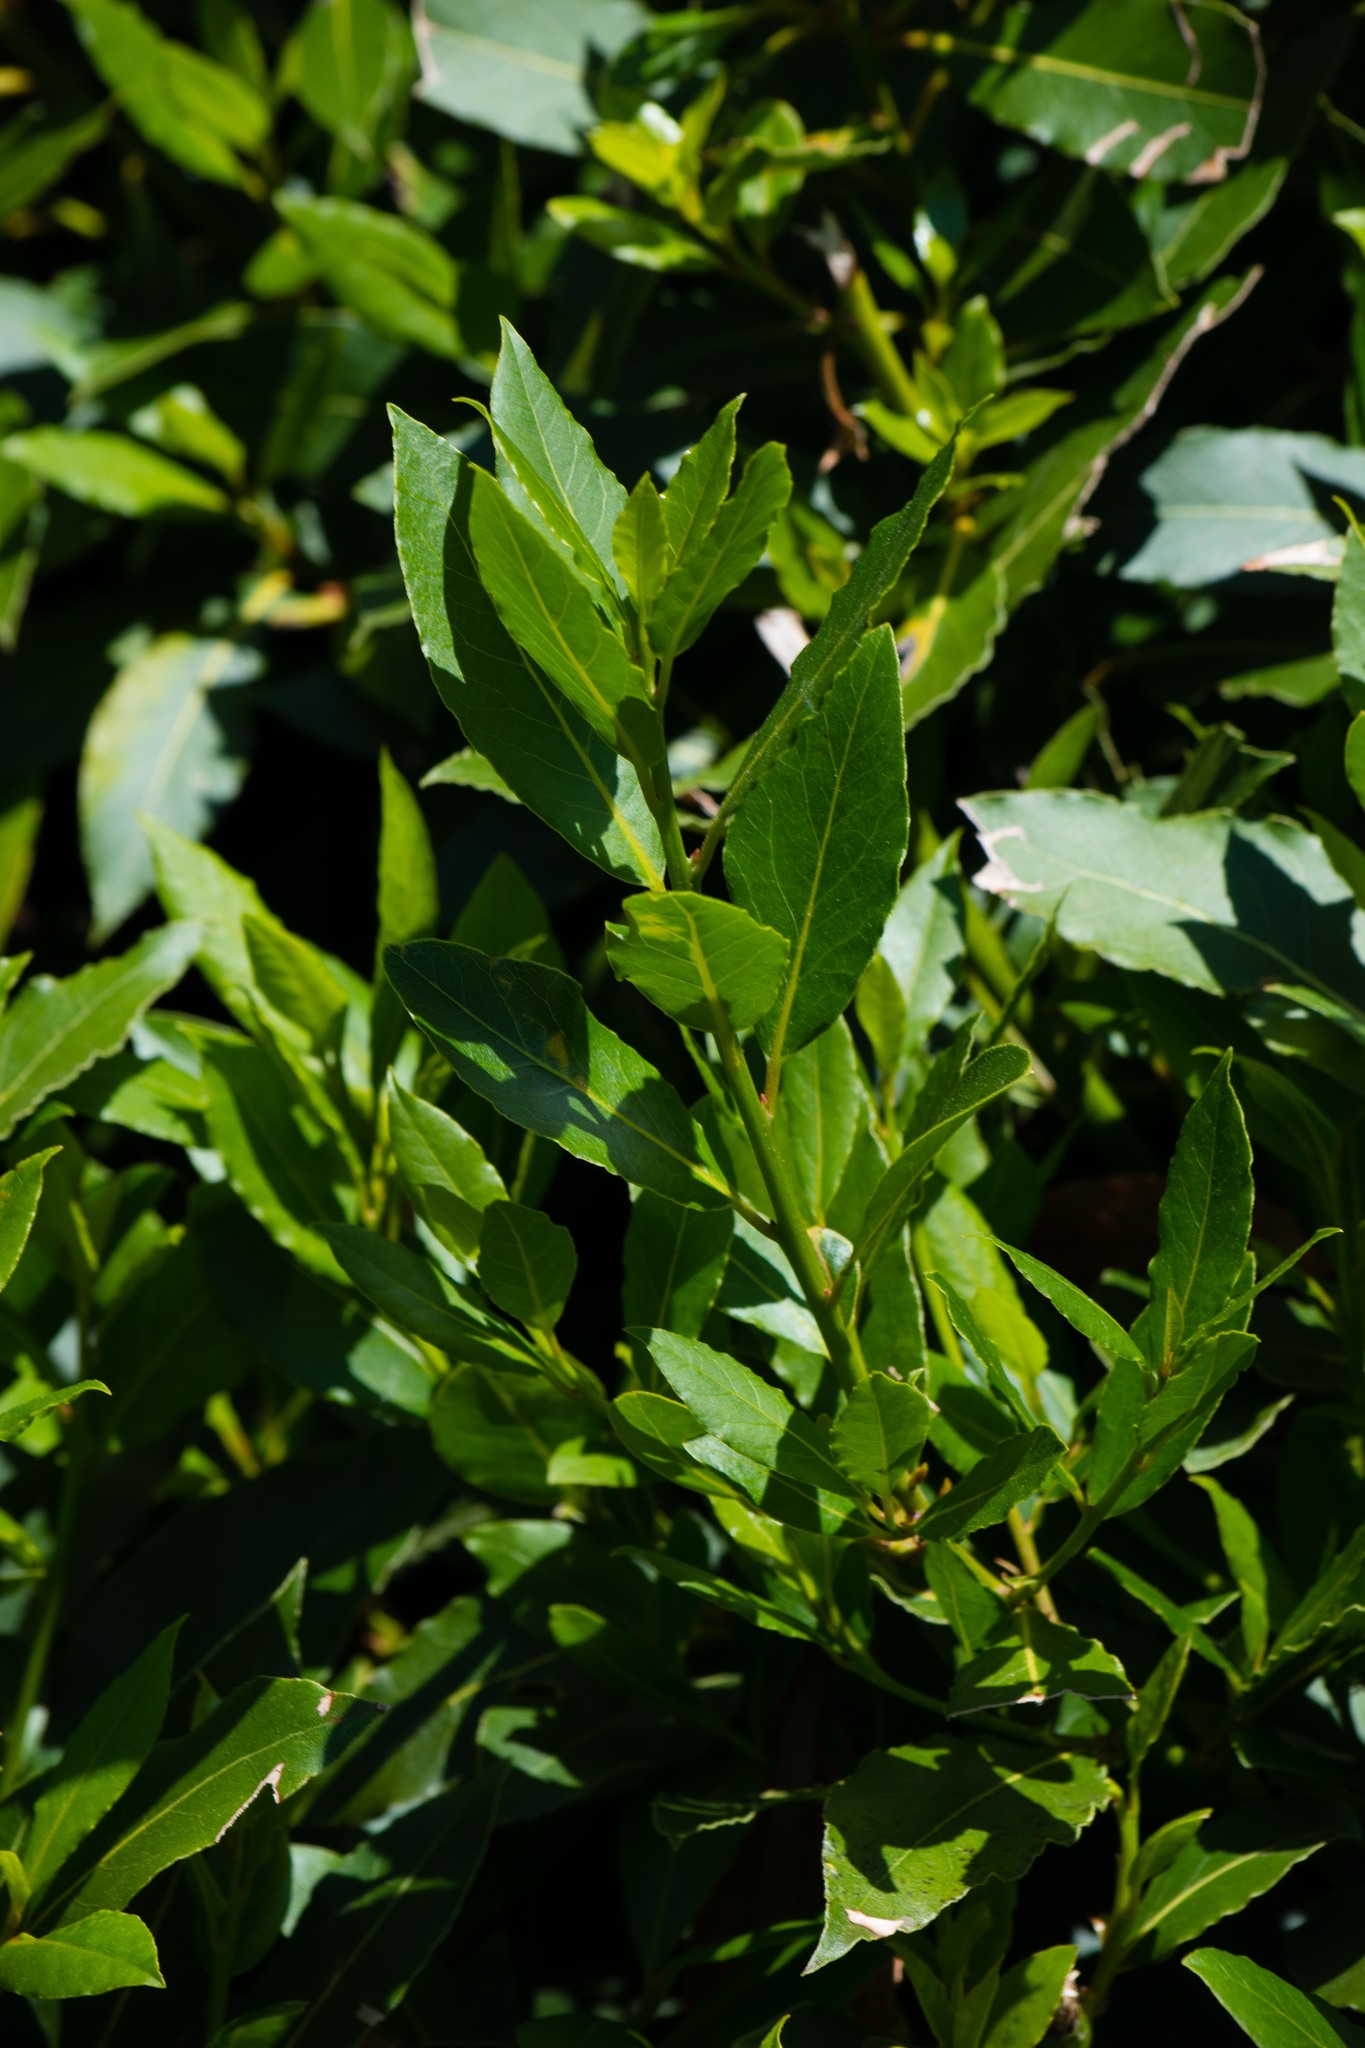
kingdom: Plantae
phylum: Tracheophyta
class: Magnoliopsida
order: Laurales
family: Lauraceae
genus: Laurus
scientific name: Laurus nobilis
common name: Bay
